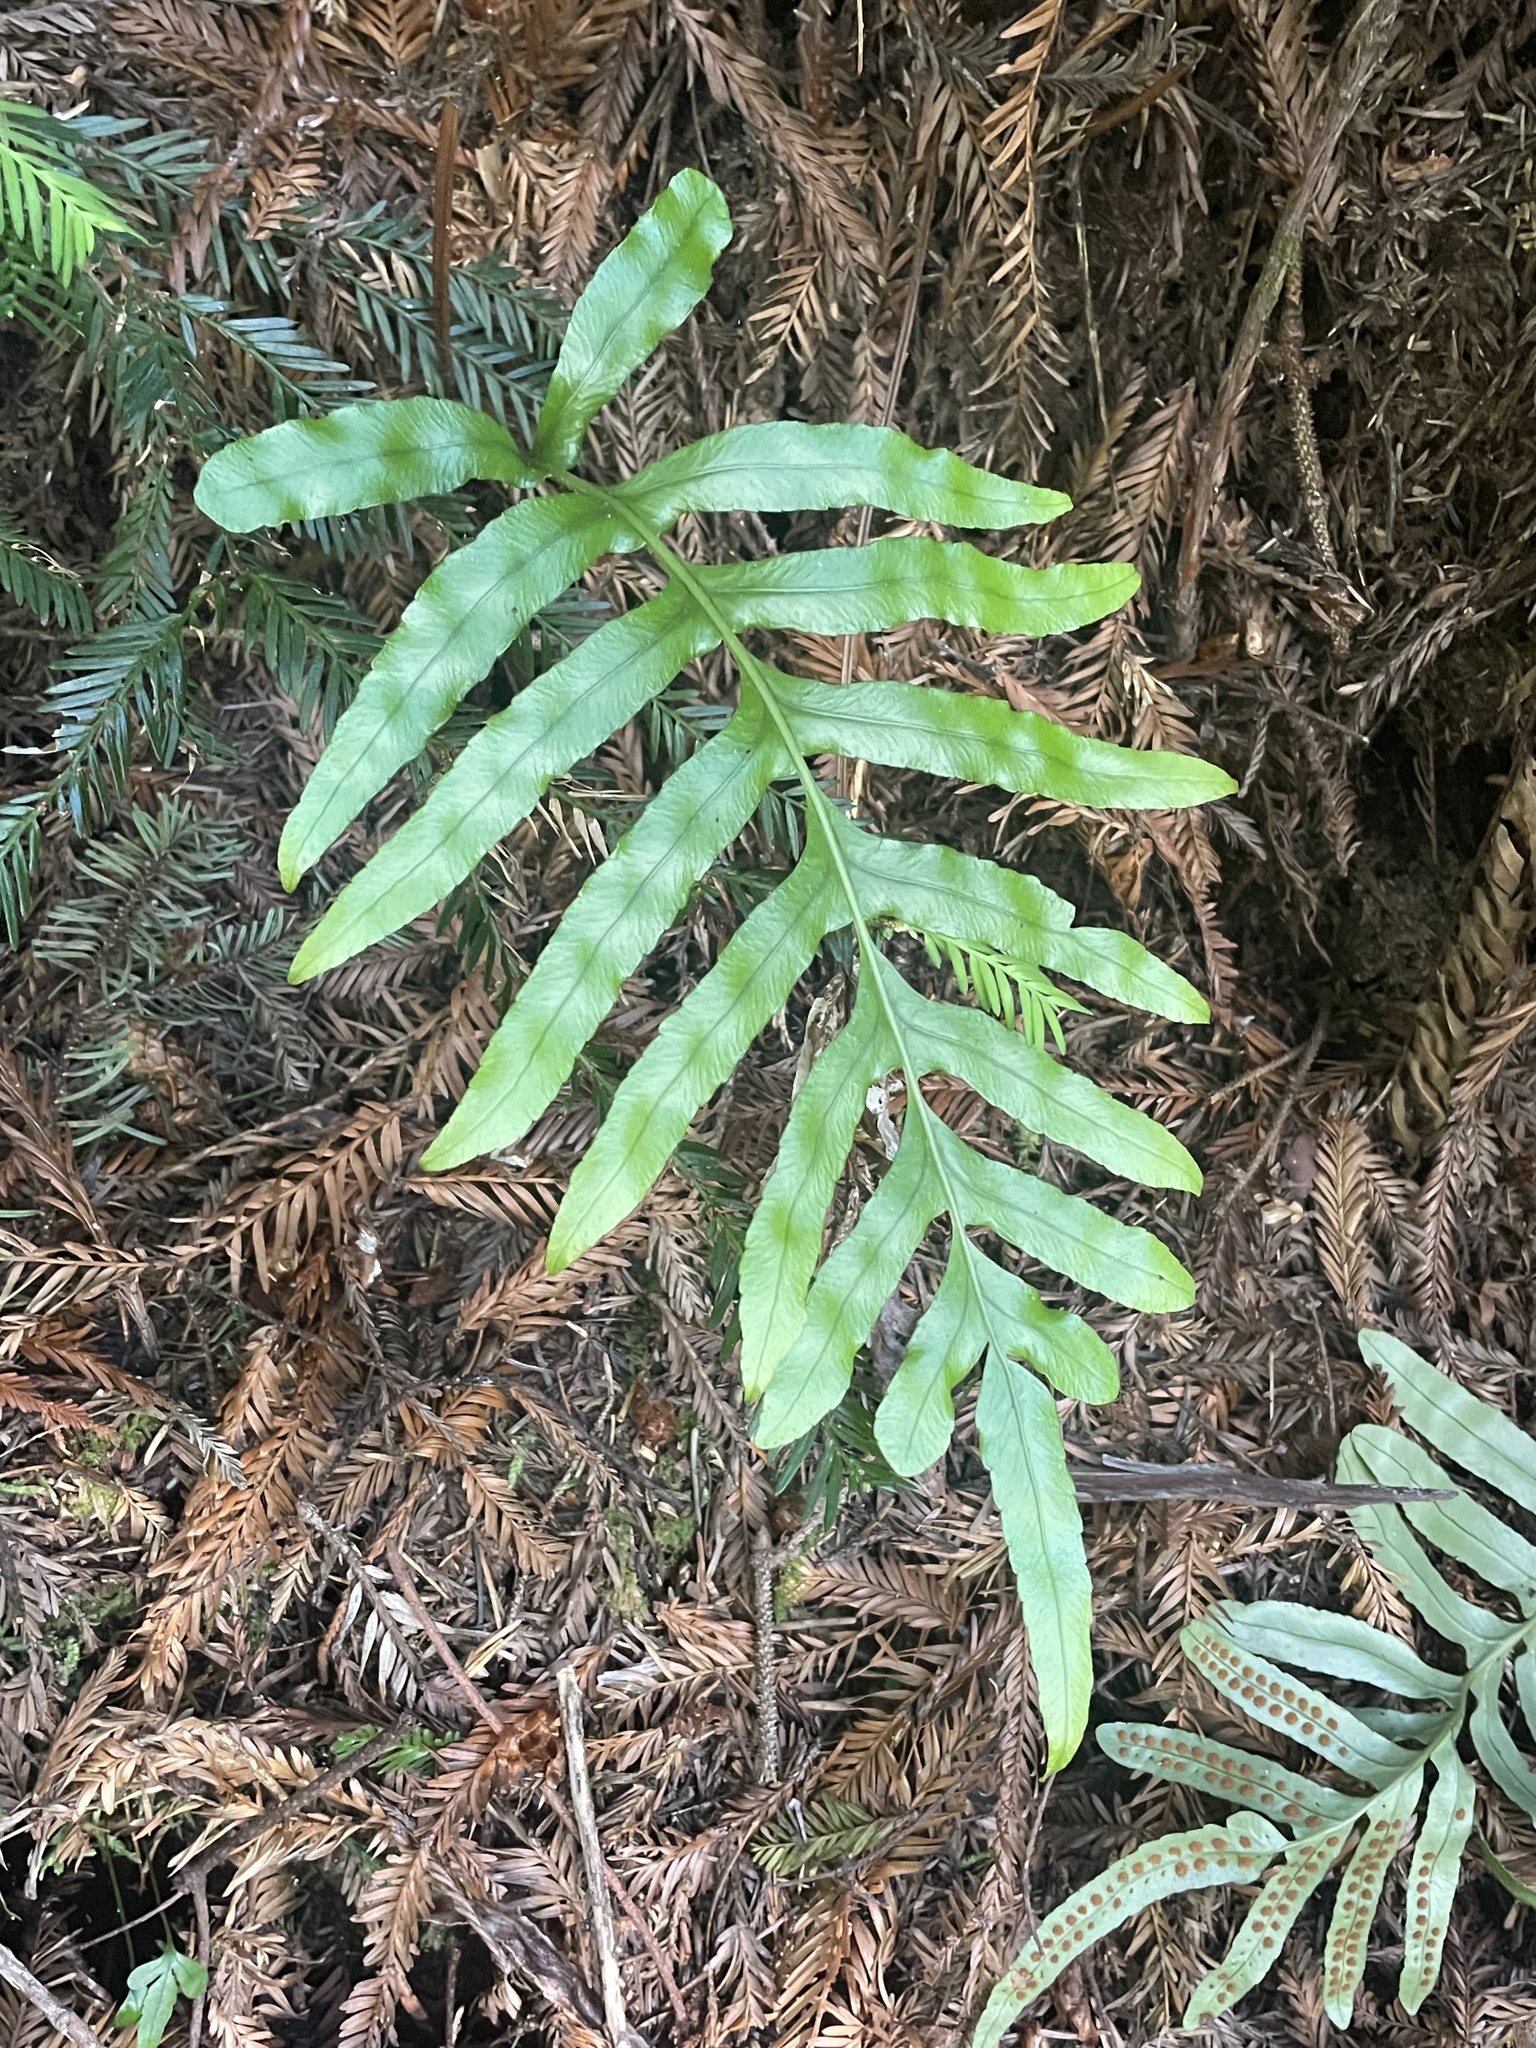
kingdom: Plantae
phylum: Tracheophyta
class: Polypodiopsida
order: Polypodiales
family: Polypodiaceae
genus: Polypodium
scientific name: Polypodium scouleri
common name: Scouler's polypody
